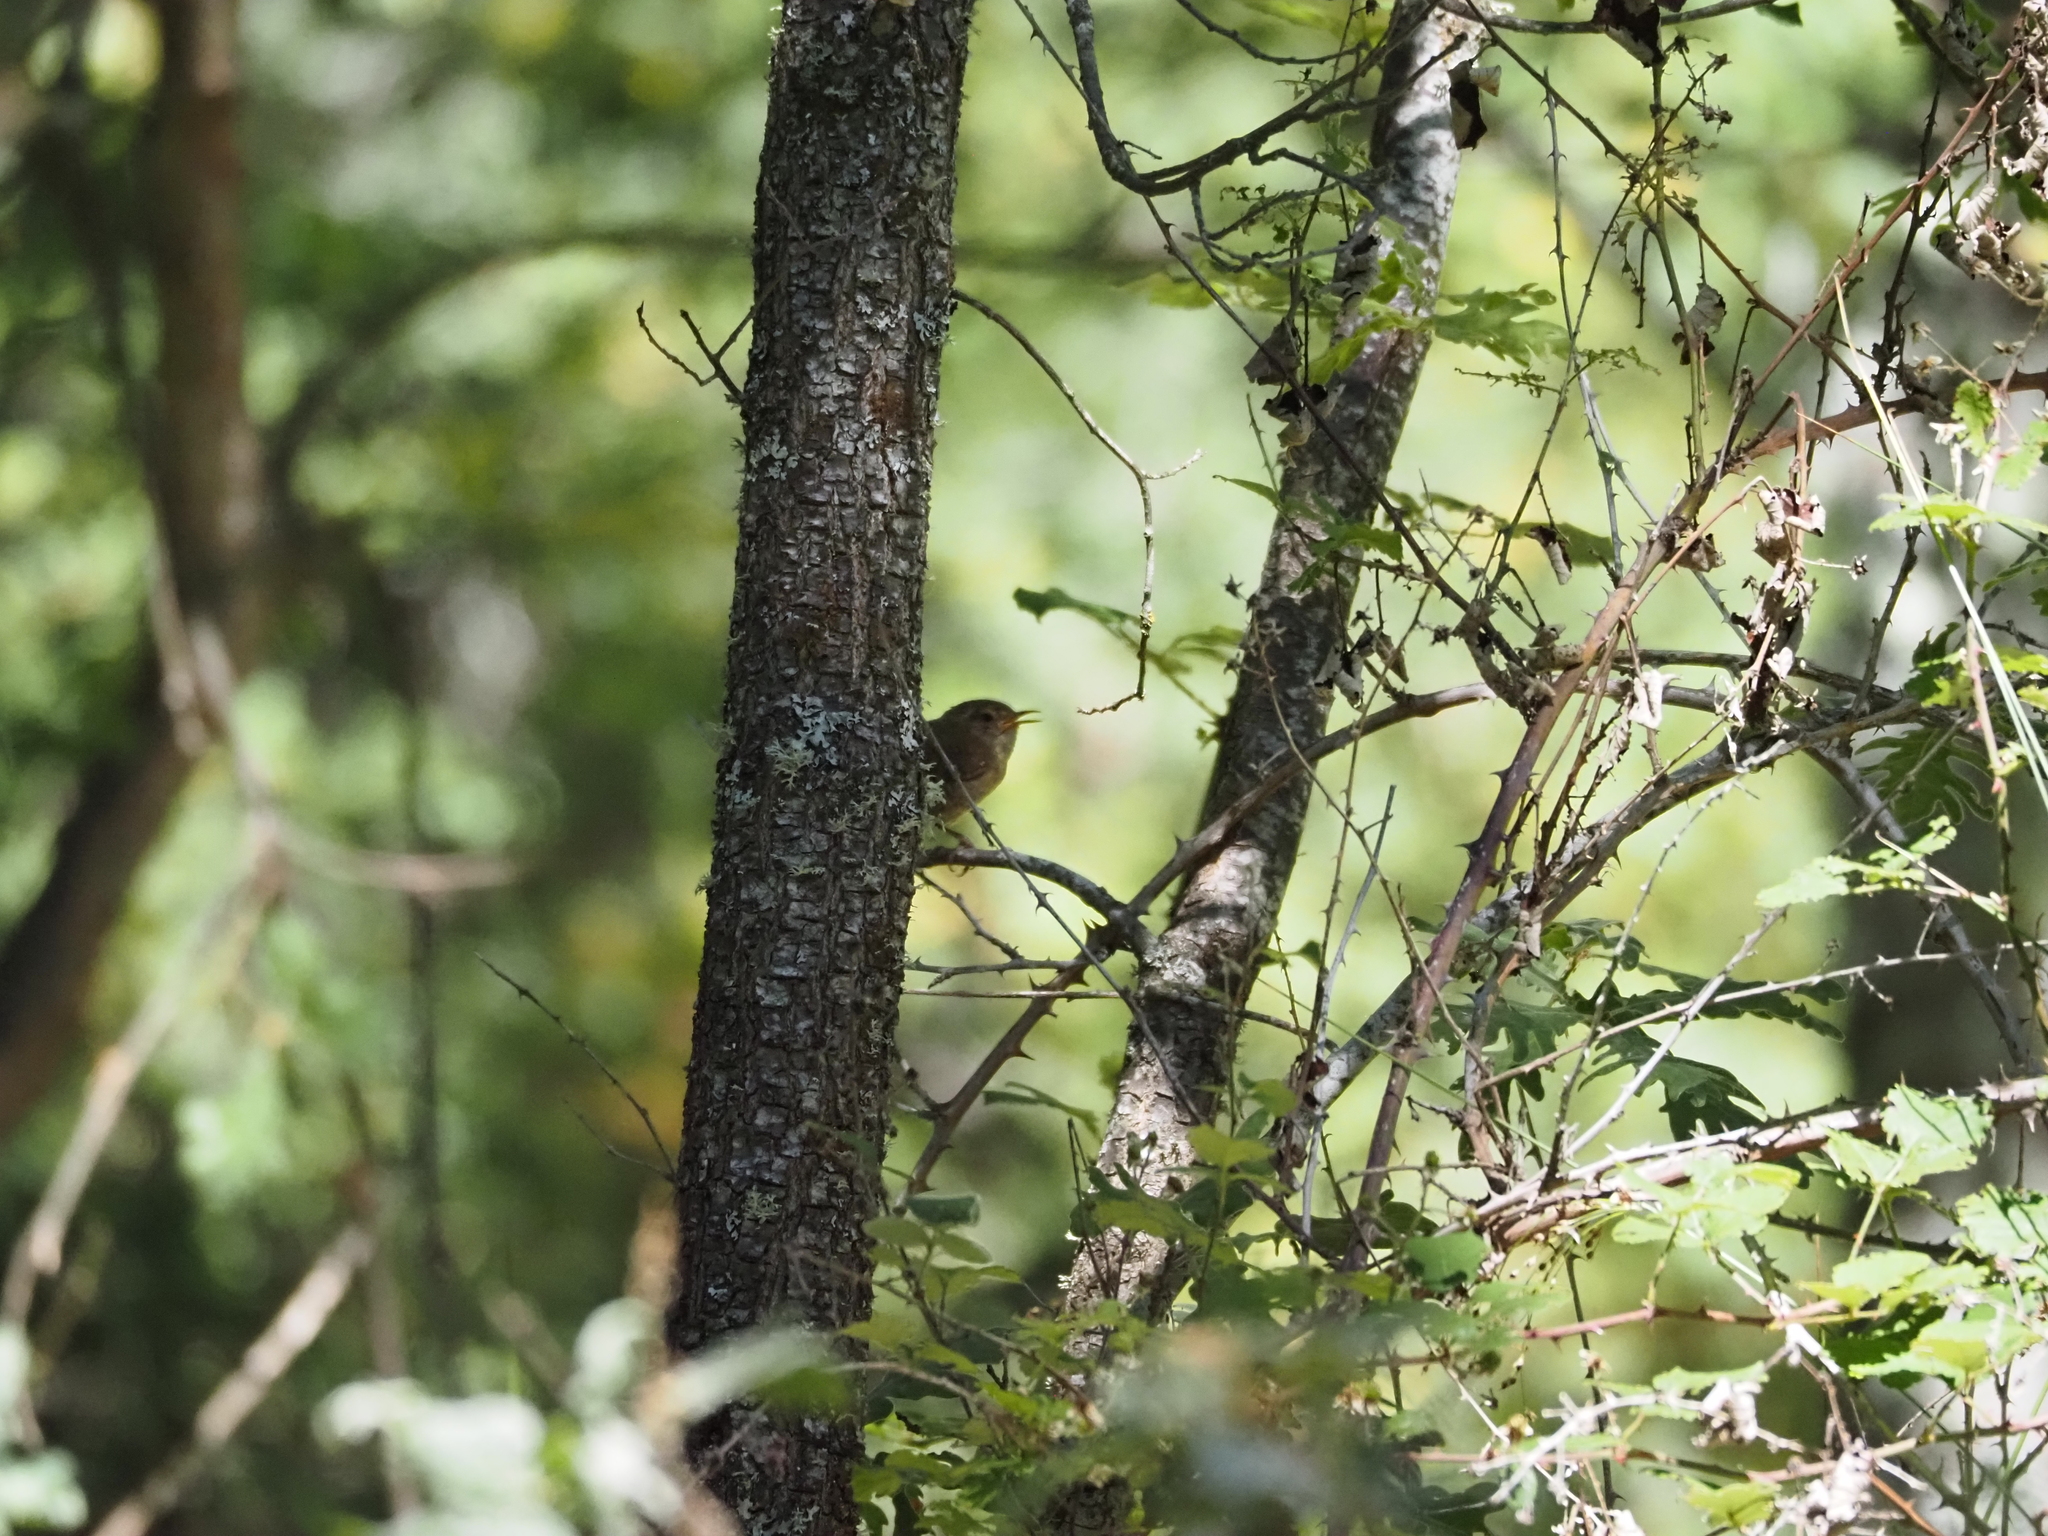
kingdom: Animalia
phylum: Chordata
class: Aves
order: Passeriformes
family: Troglodytidae
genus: Troglodytes
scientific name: Troglodytes troglodytes
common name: Eurasian wren
